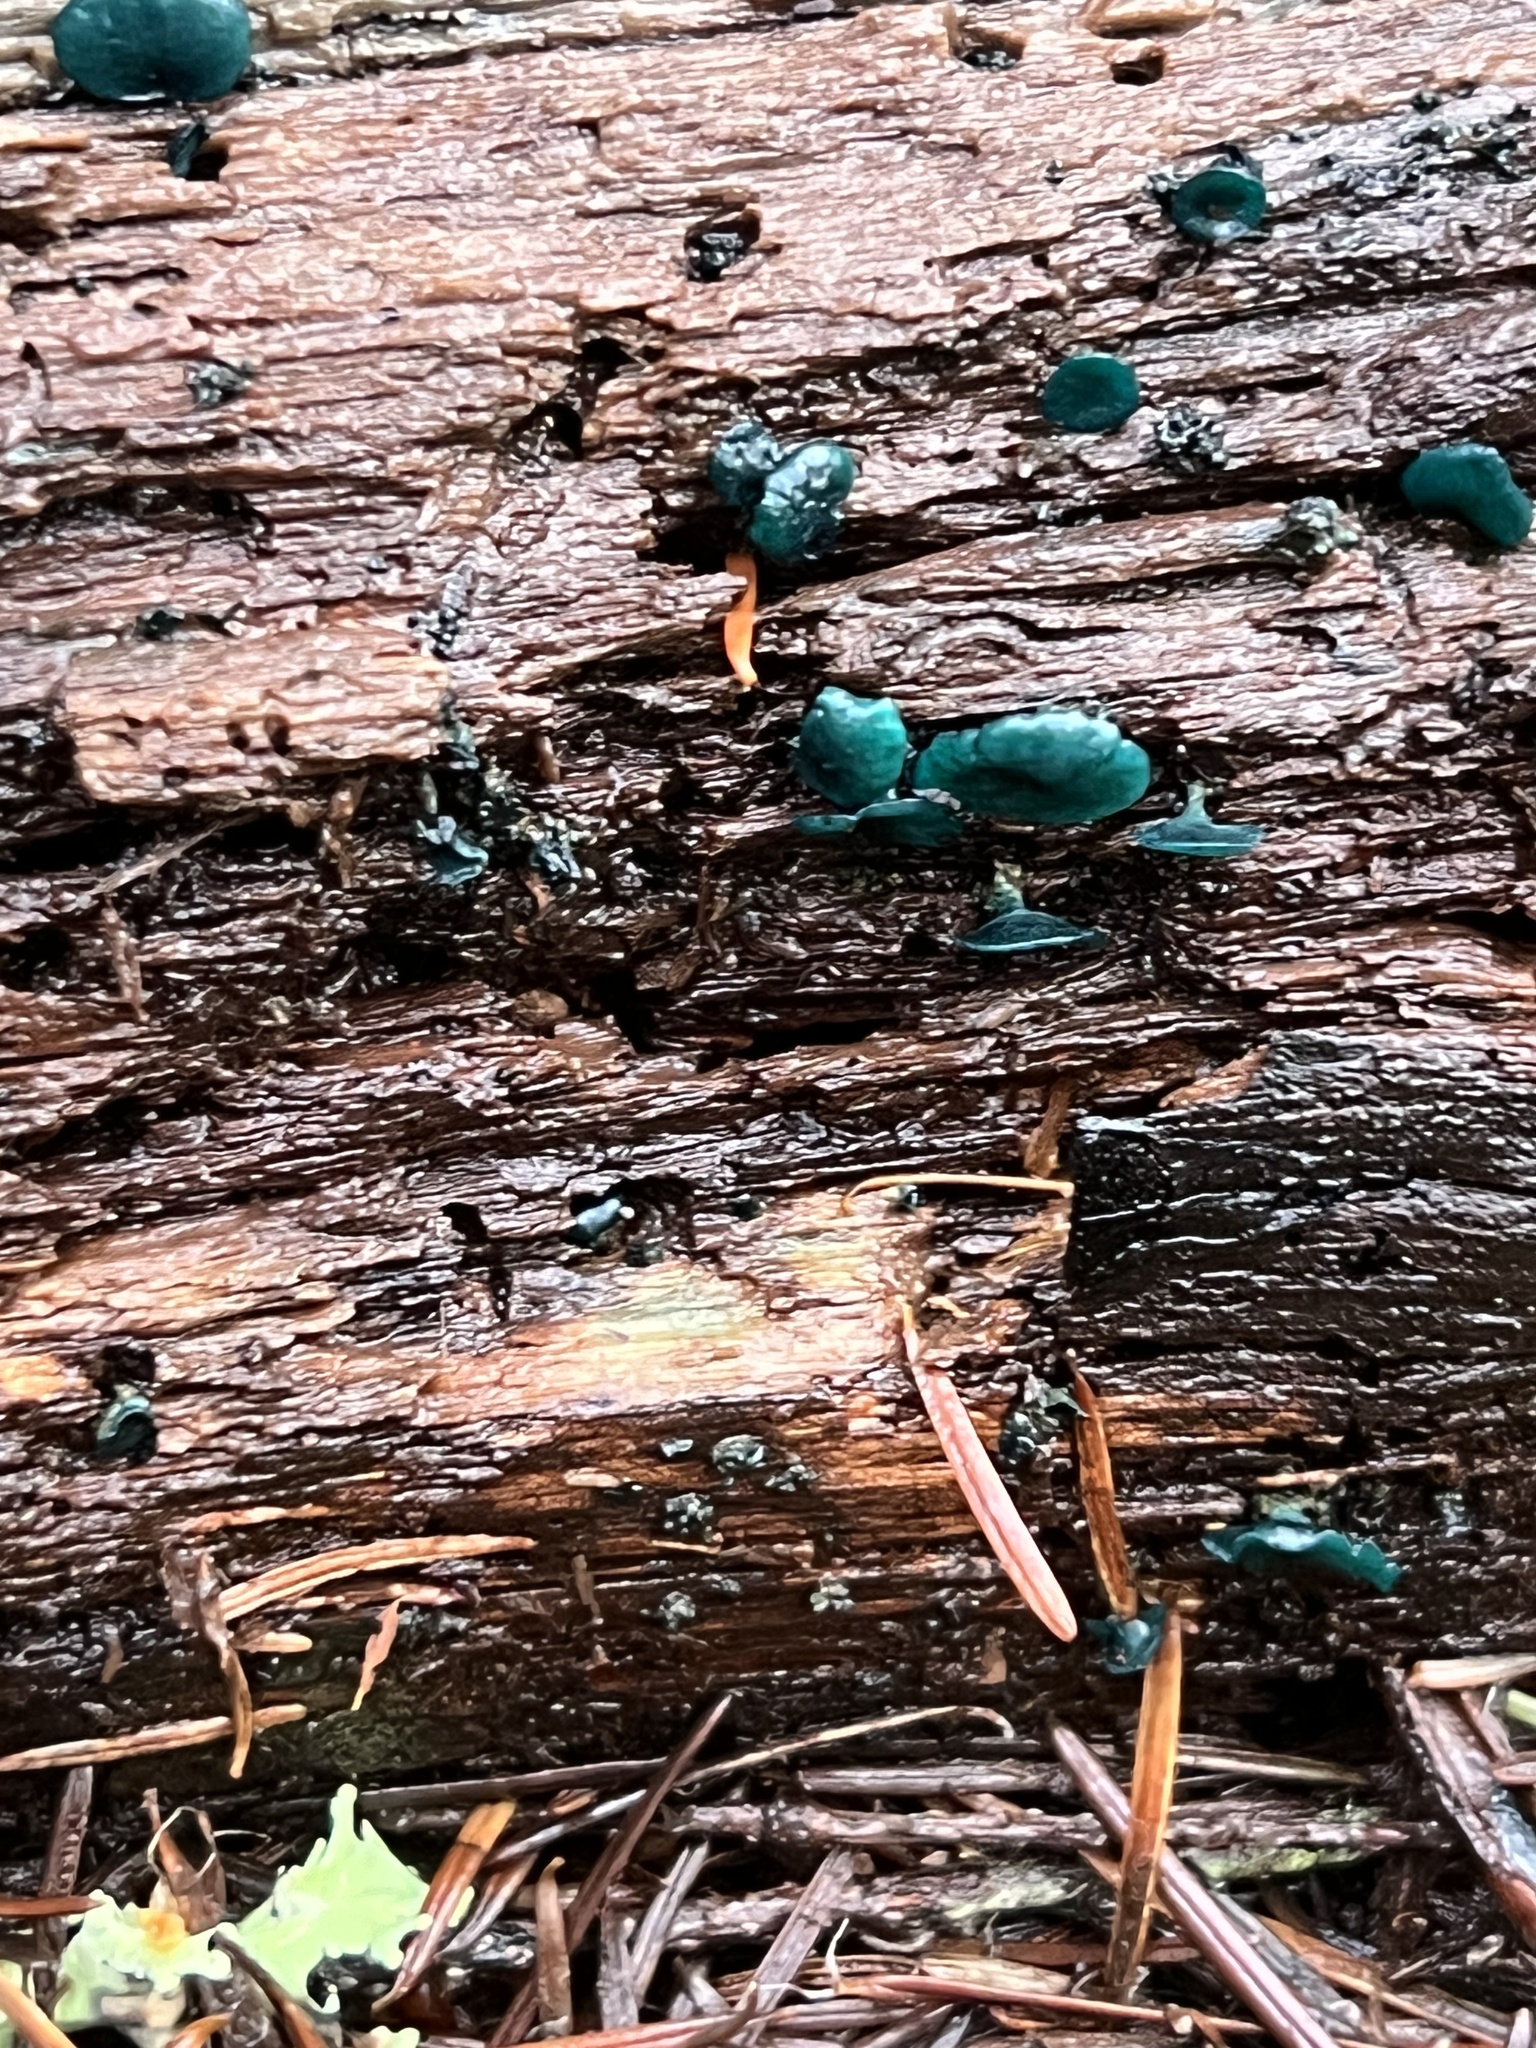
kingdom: Fungi
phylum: Ascomycota
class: Leotiomycetes
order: Helotiales
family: Chlorociboriaceae
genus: Chlorociboria
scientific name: Chlorociboria aeruginascens
